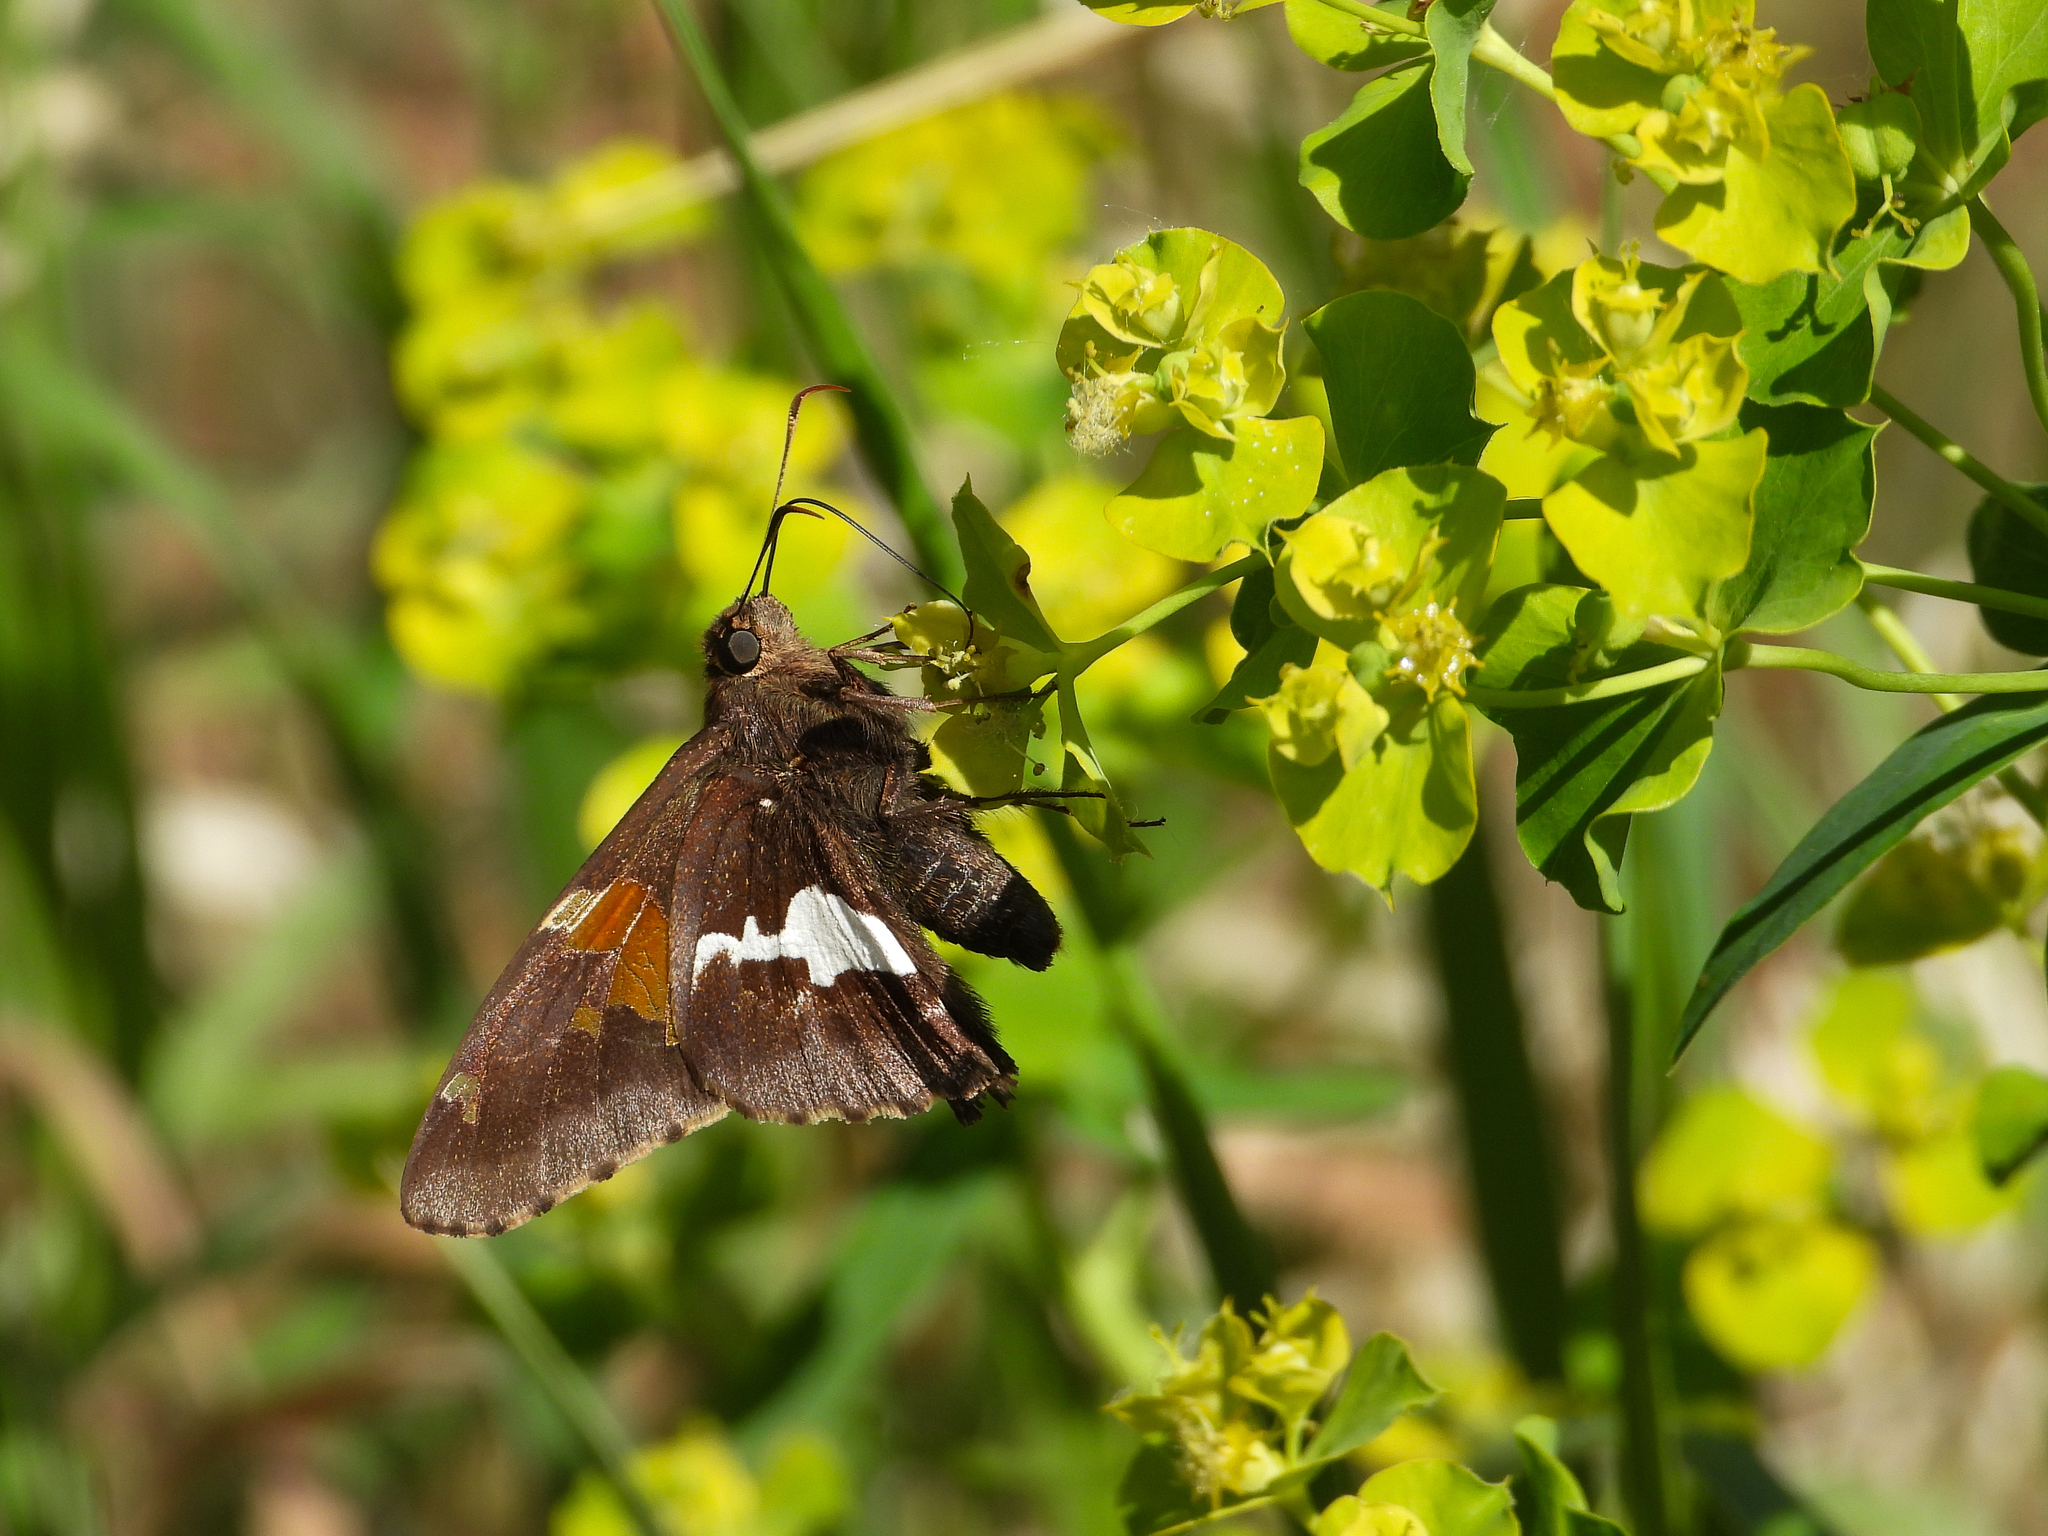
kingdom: Animalia
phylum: Arthropoda
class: Insecta
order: Lepidoptera
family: Hesperiidae
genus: Epargyreus
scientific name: Epargyreus clarus
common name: Silver-spotted skipper
